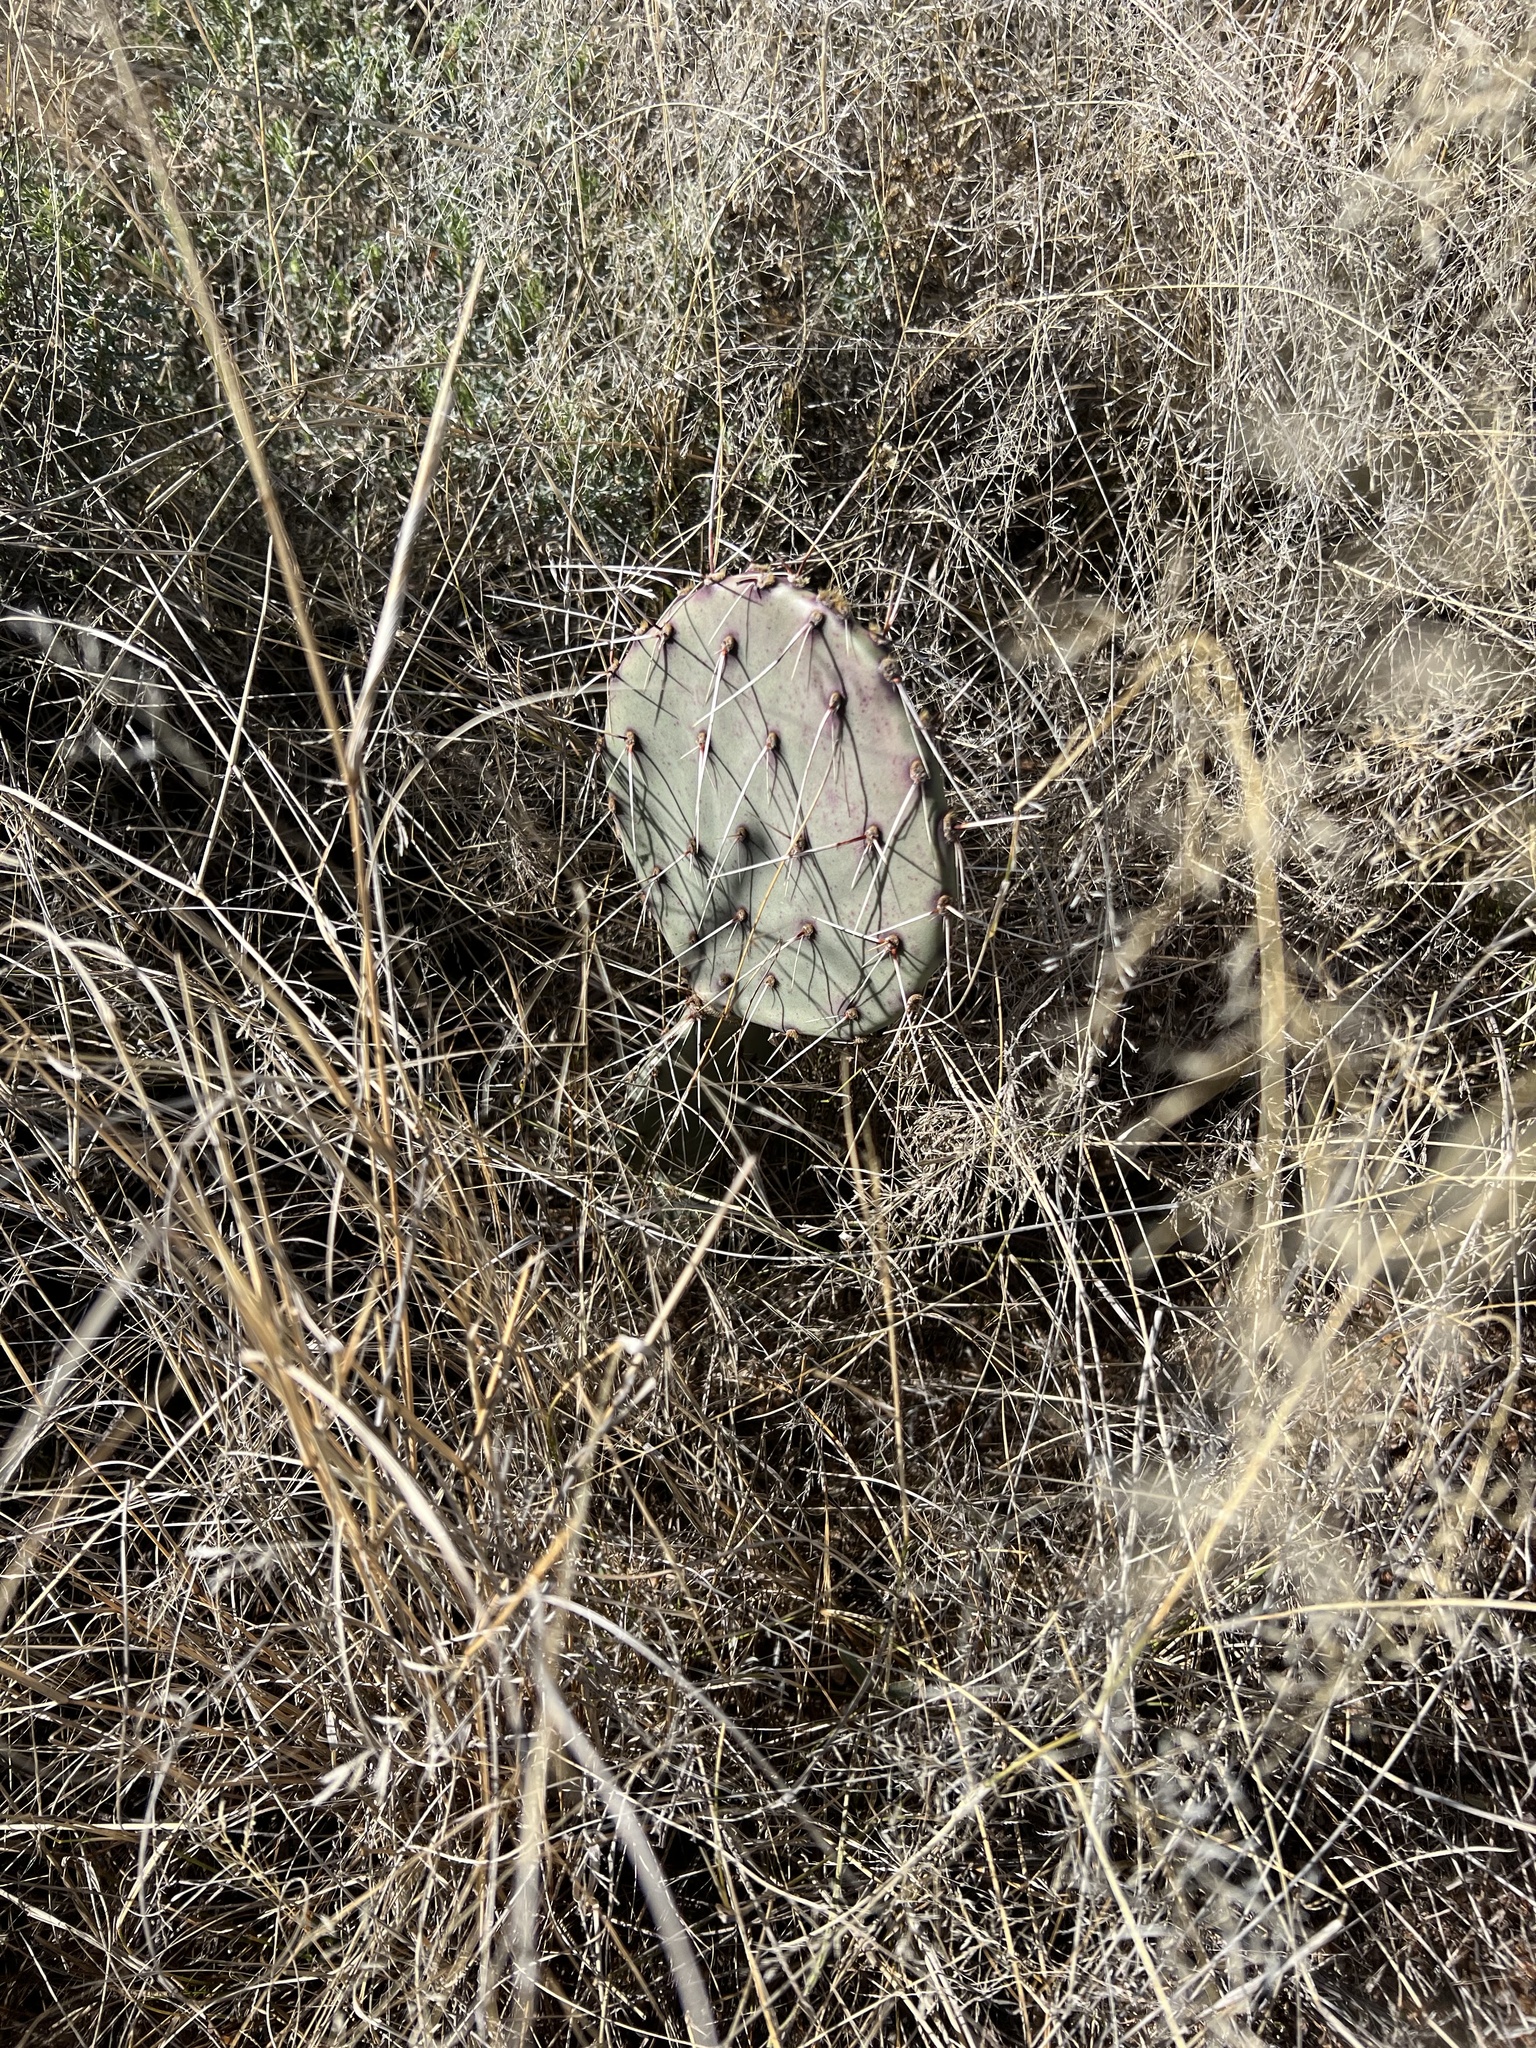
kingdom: Plantae
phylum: Tracheophyta
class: Magnoliopsida
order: Caryophyllales
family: Cactaceae
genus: Opuntia
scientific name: Opuntia phaeacantha
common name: New mexico prickly-pear
